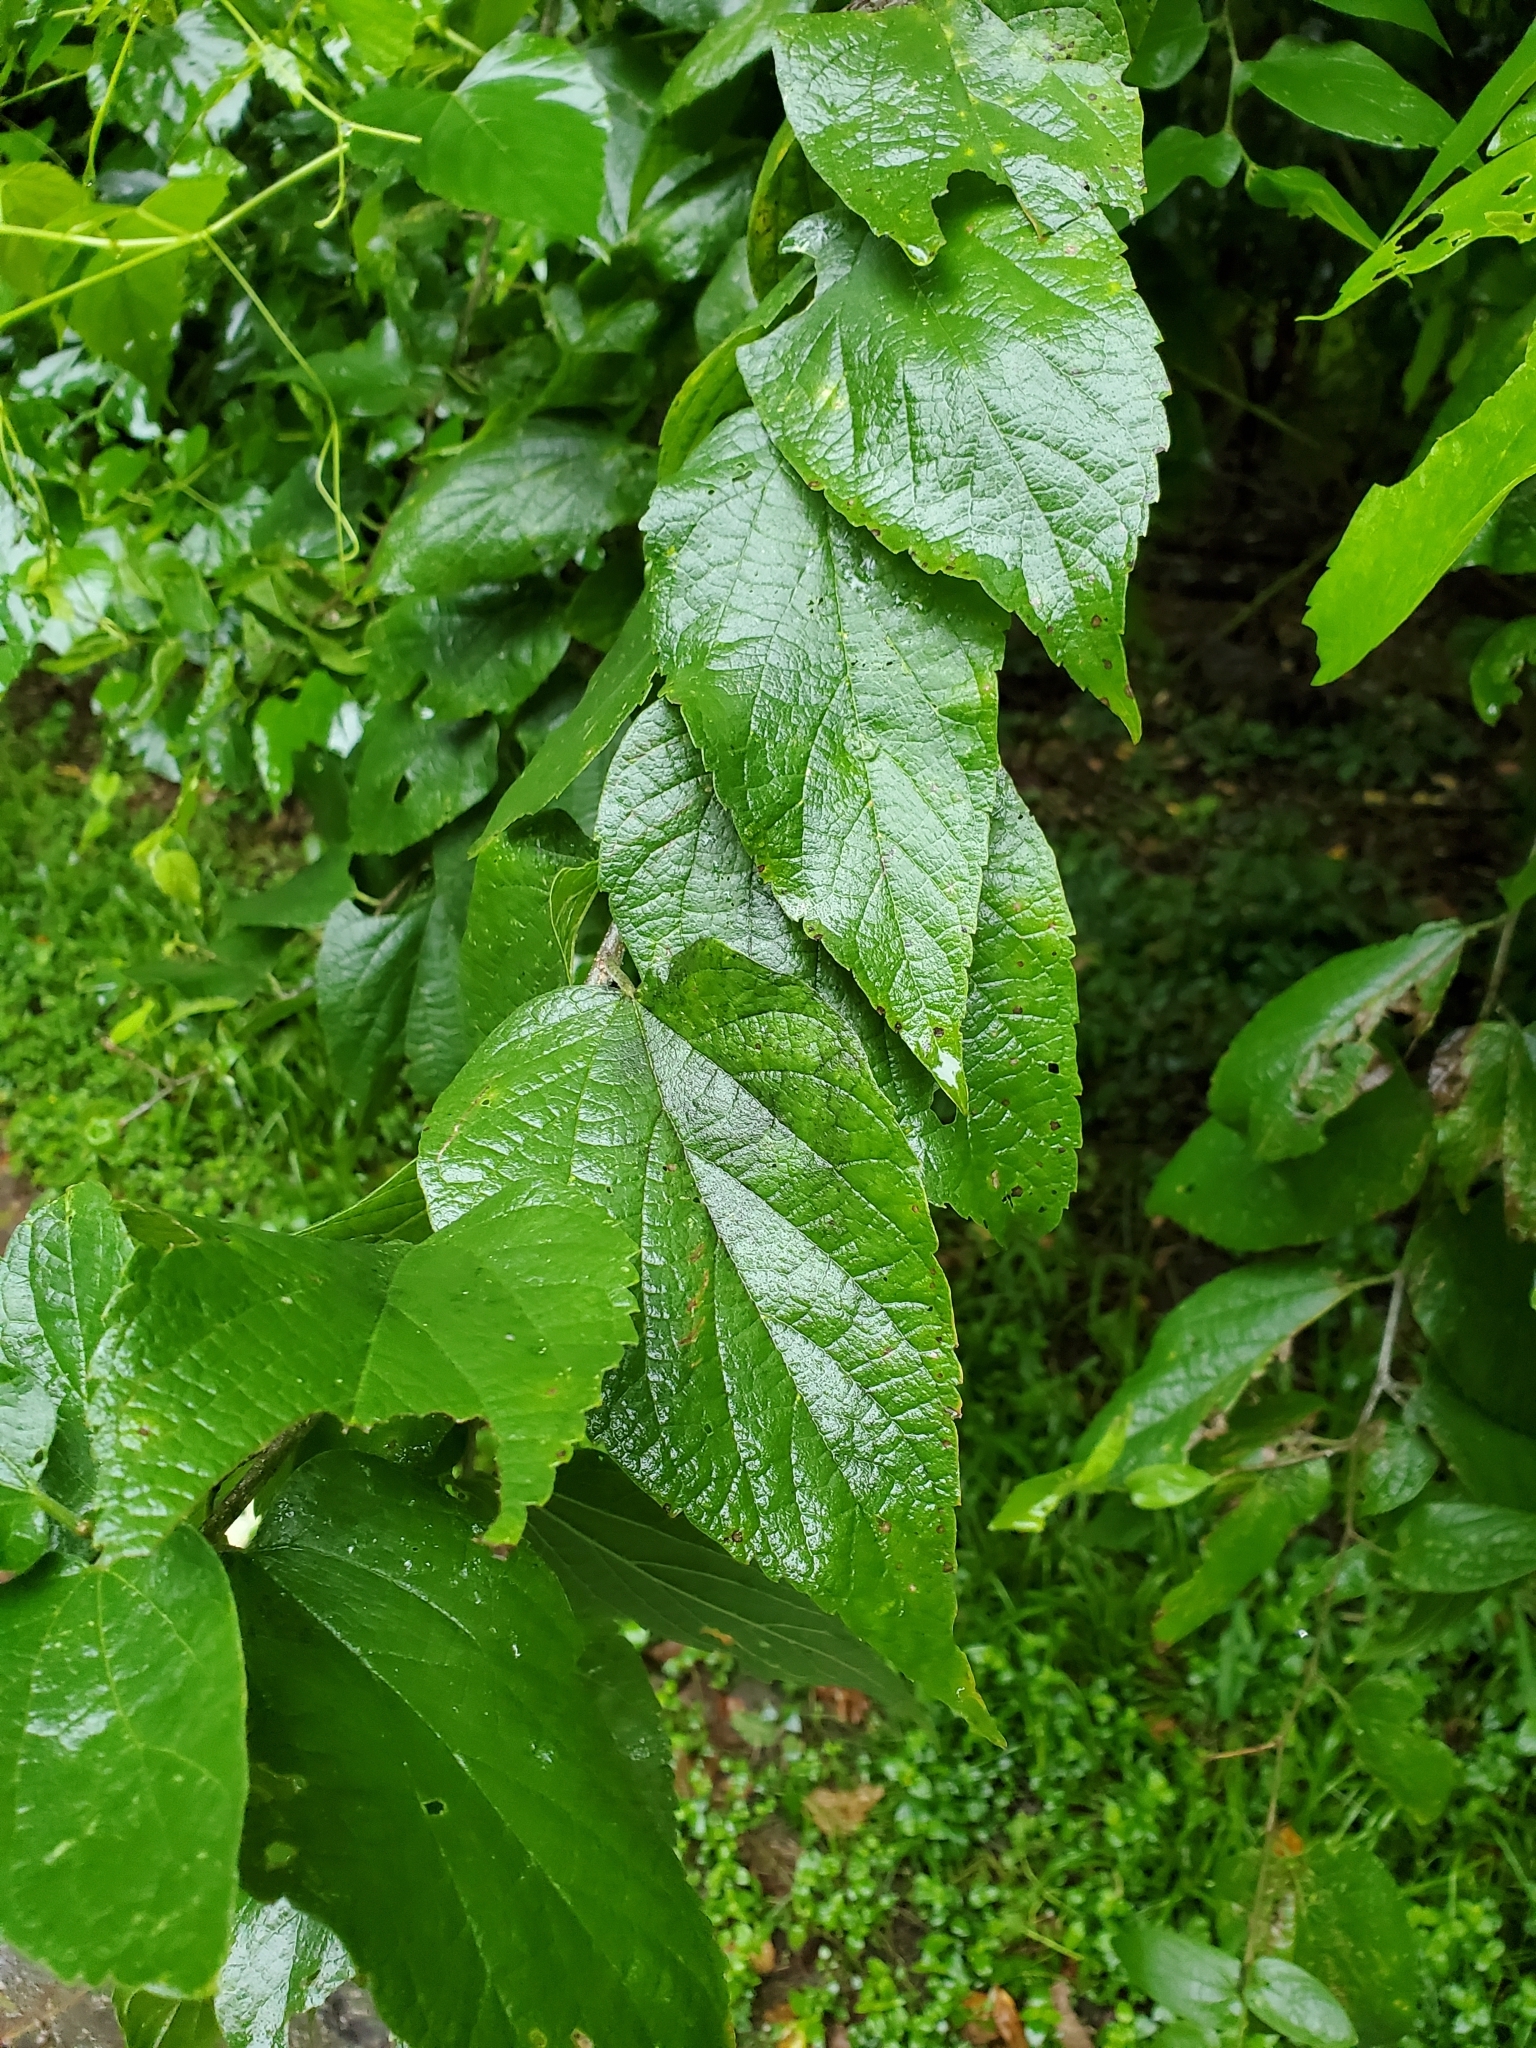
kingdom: Plantae
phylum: Tracheophyta
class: Magnoliopsida
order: Rosales
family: Cannabaceae
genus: Celtis
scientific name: Celtis laevigata
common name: Sugarberry
